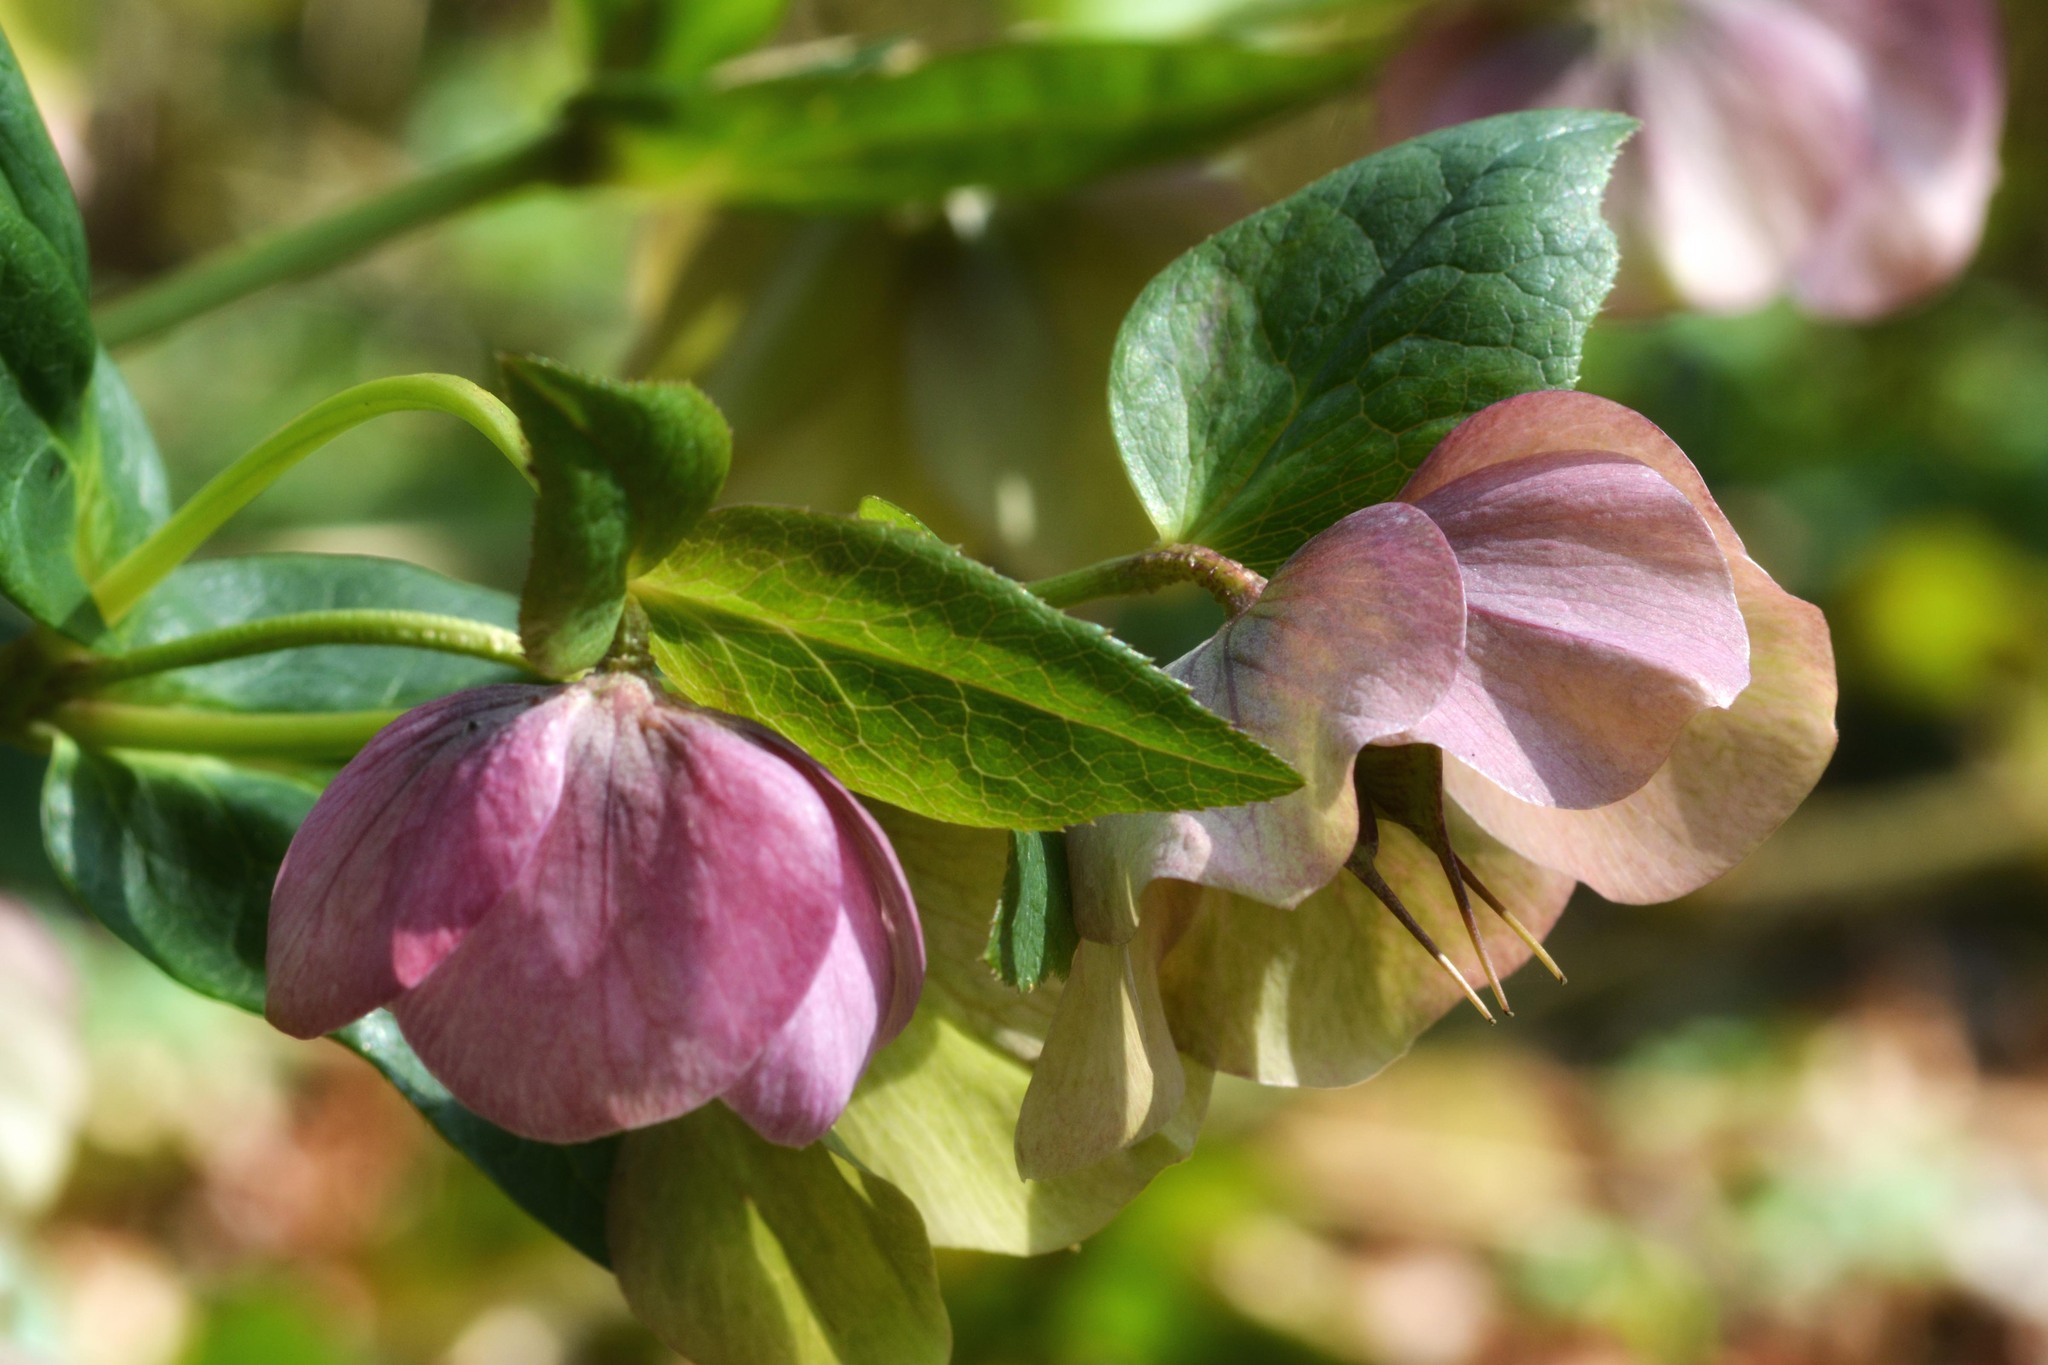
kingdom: Plantae
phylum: Tracheophyta
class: Magnoliopsida
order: Ranunculales
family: Ranunculaceae
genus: Helleborus
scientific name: Helleborus orientalis
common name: Lenten-rose
